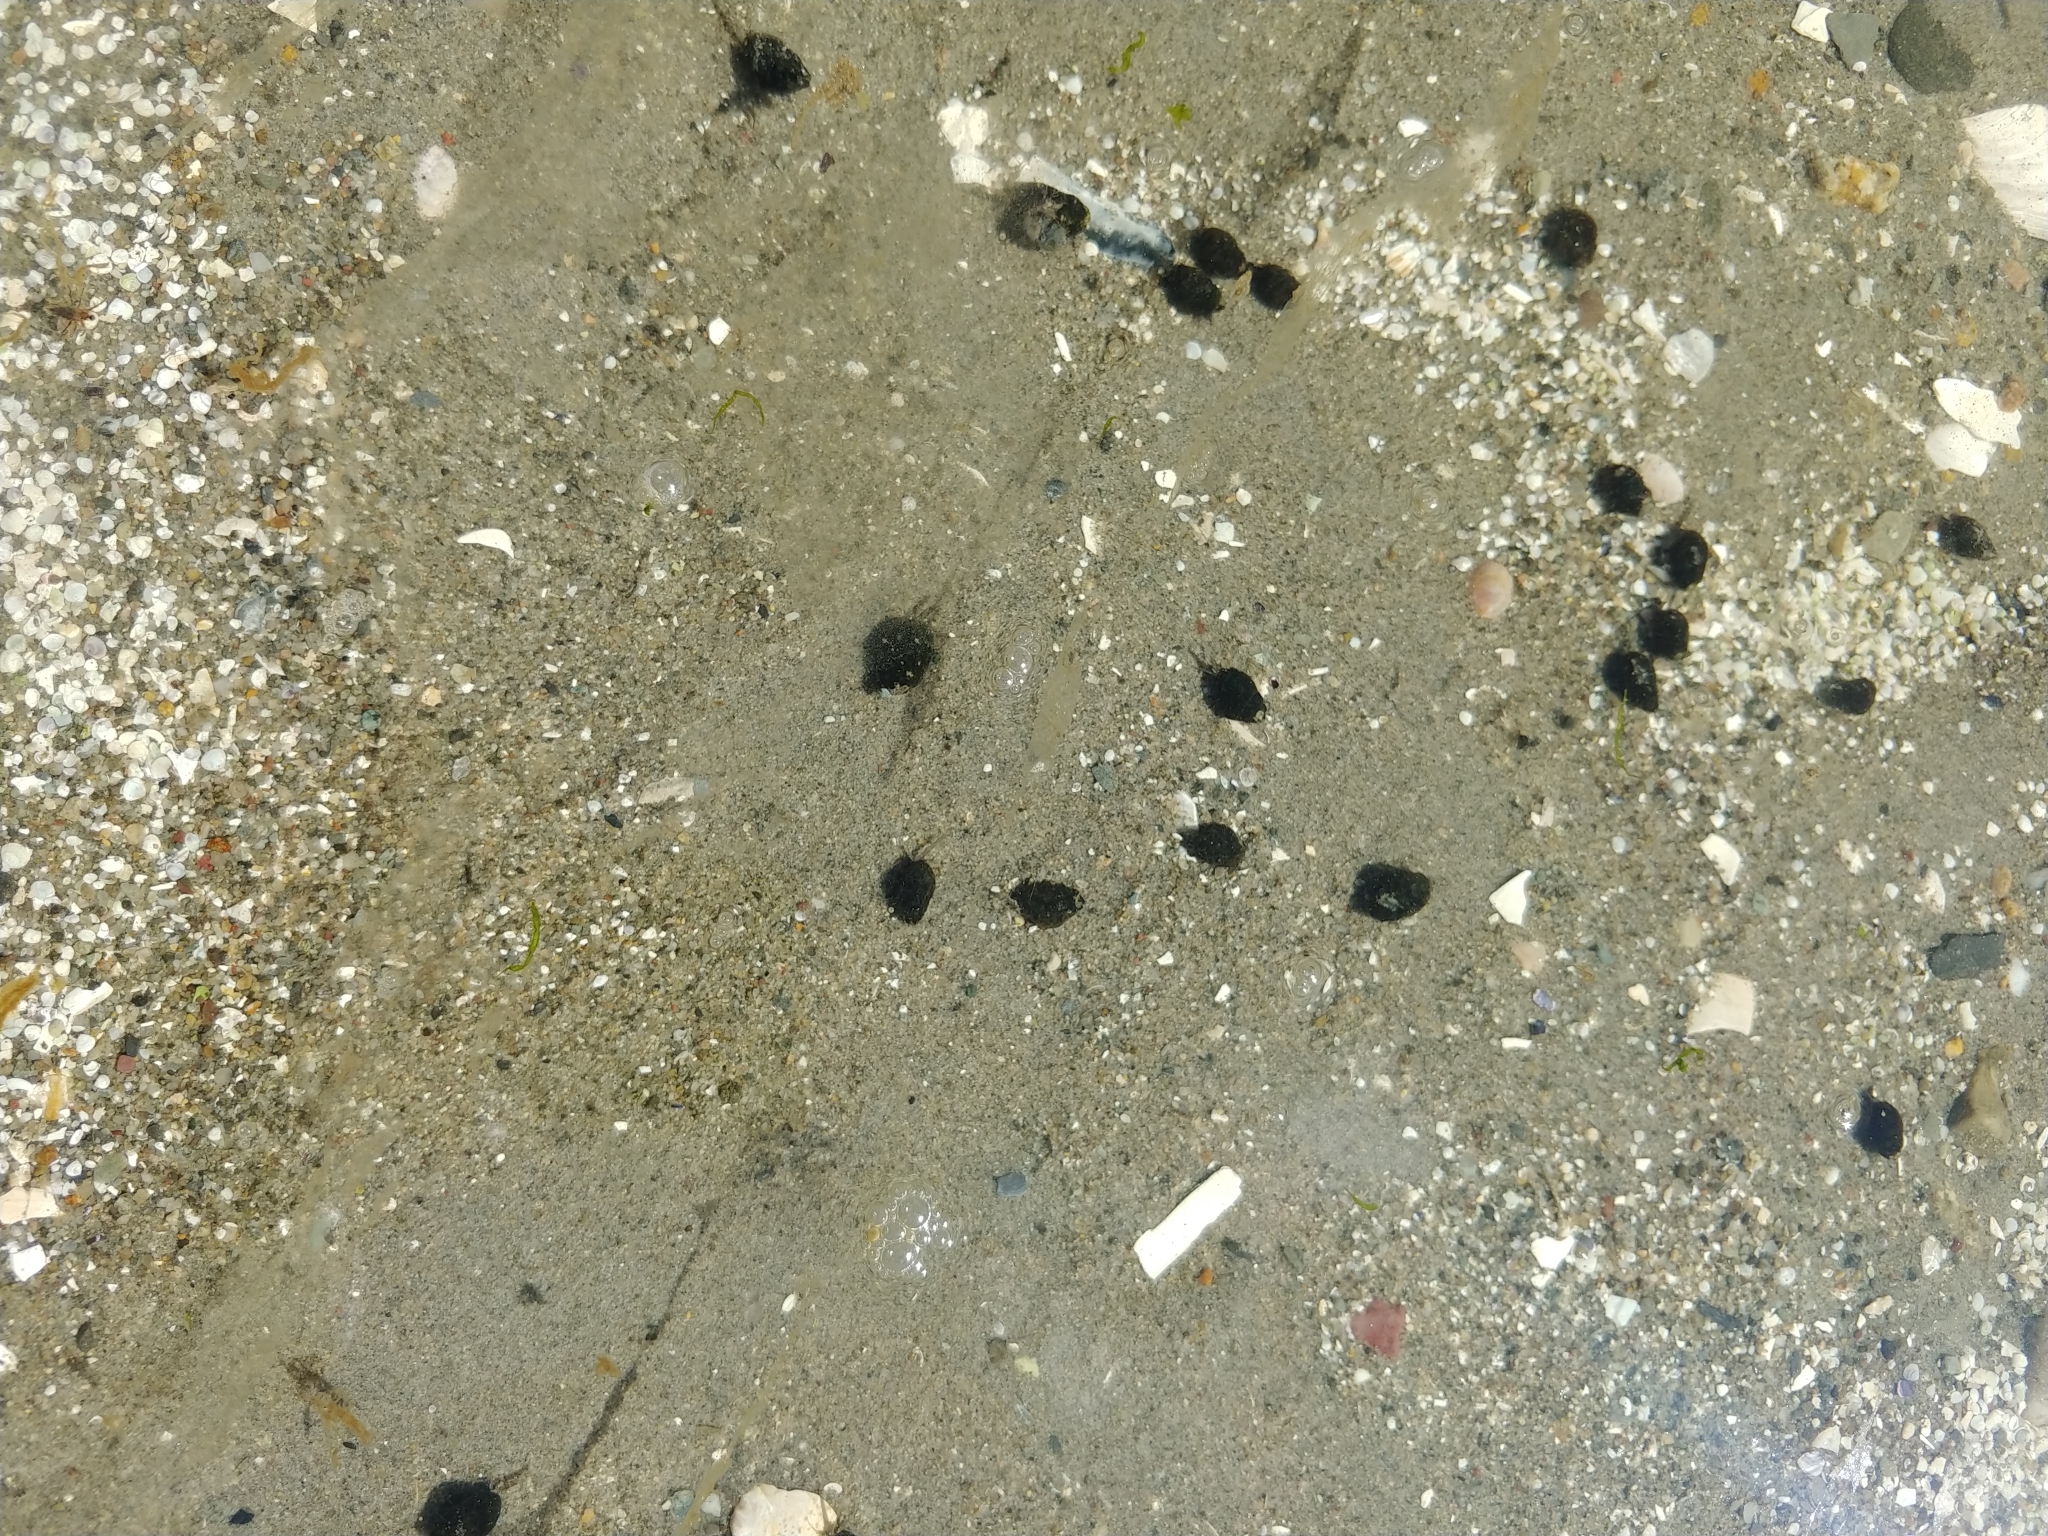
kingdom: Animalia
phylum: Mollusca
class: Gastropoda
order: Neogastropoda
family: Nassariidae
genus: Ilyanassa
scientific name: Ilyanassa obsoleta
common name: Eastern mudsnail
